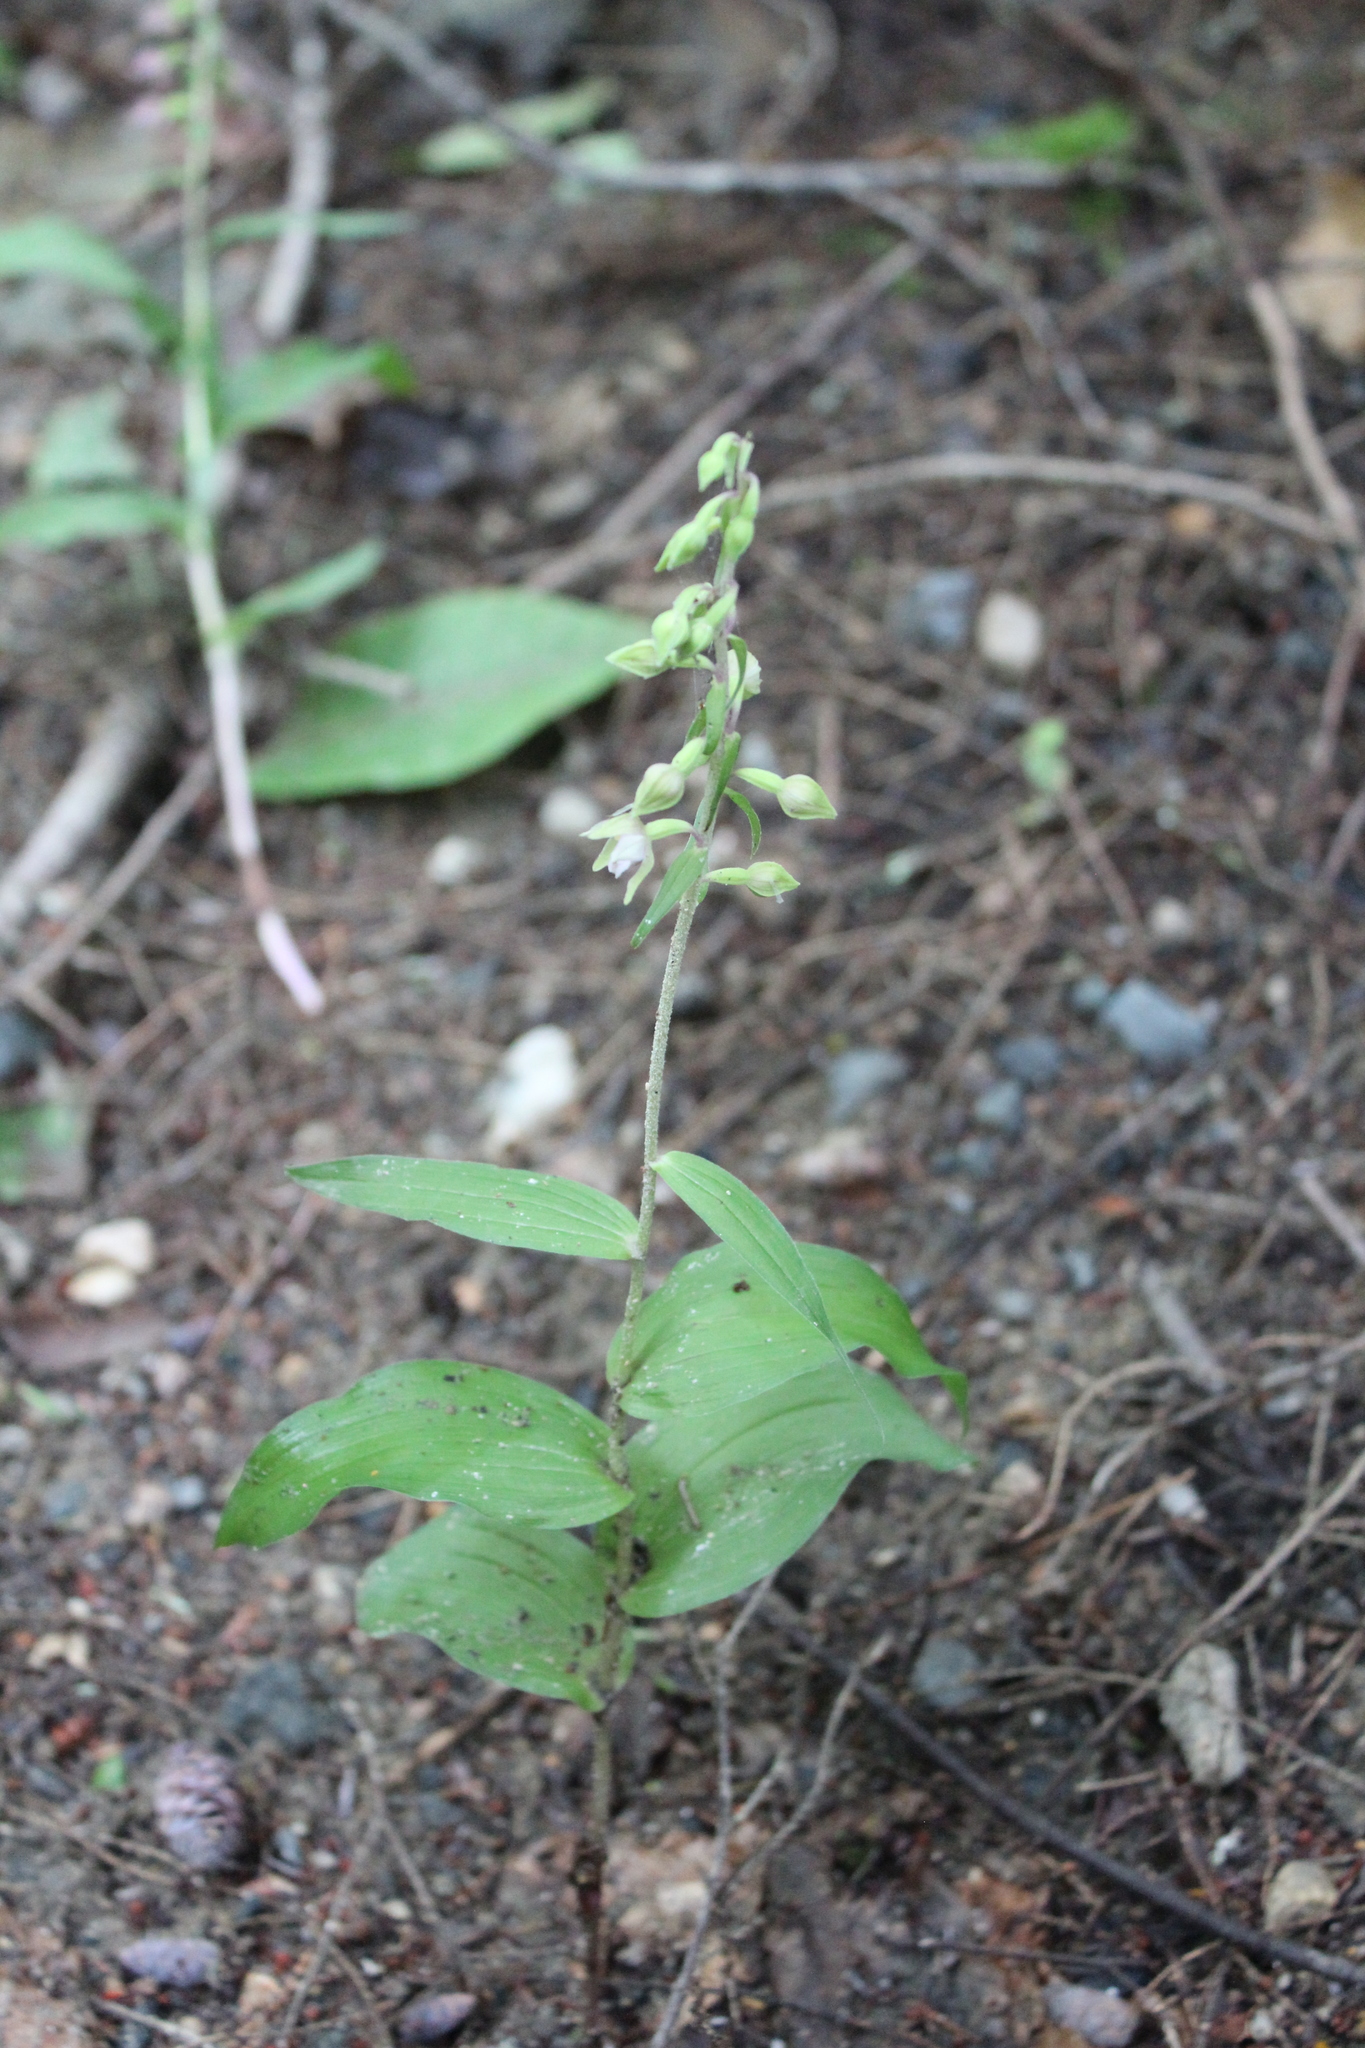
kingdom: Plantae
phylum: Tracheophyta
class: Liliopsida
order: Asparagales
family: Orchidaceae
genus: Epipactis
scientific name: Epipactis helleborine
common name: Broad-leaved helleborine
